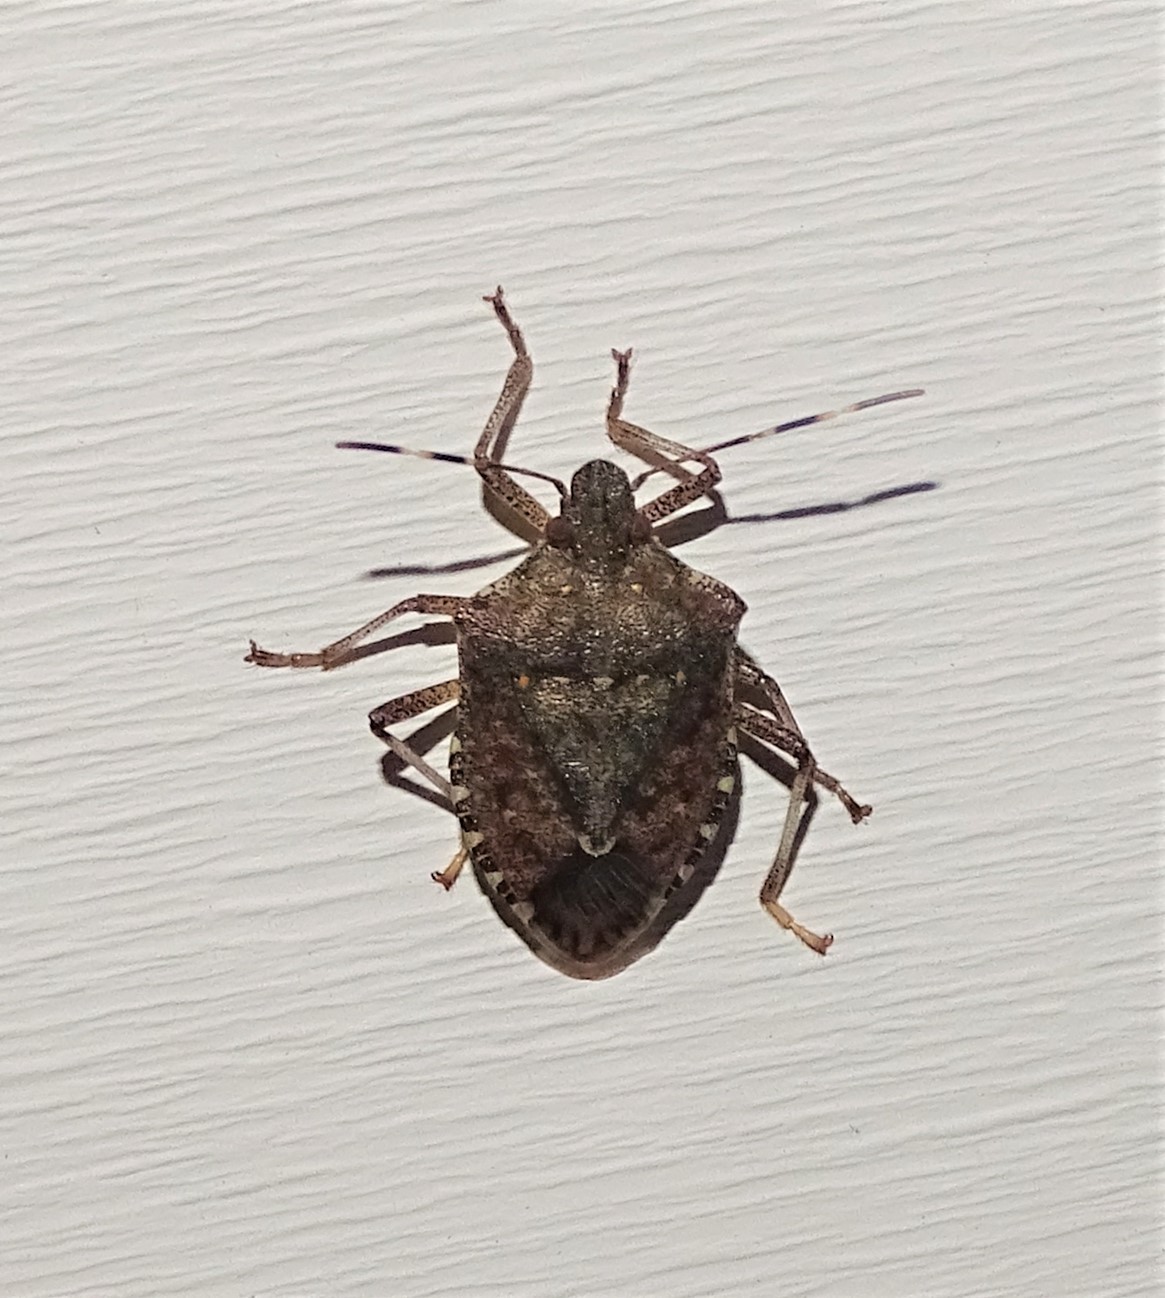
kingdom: Animalia
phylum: Arthropoda
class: Insecta
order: Hemiptera
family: Pentatomidae
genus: Halyomorpha
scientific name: Halyomorpha halys
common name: Brown marmorated stink bug
